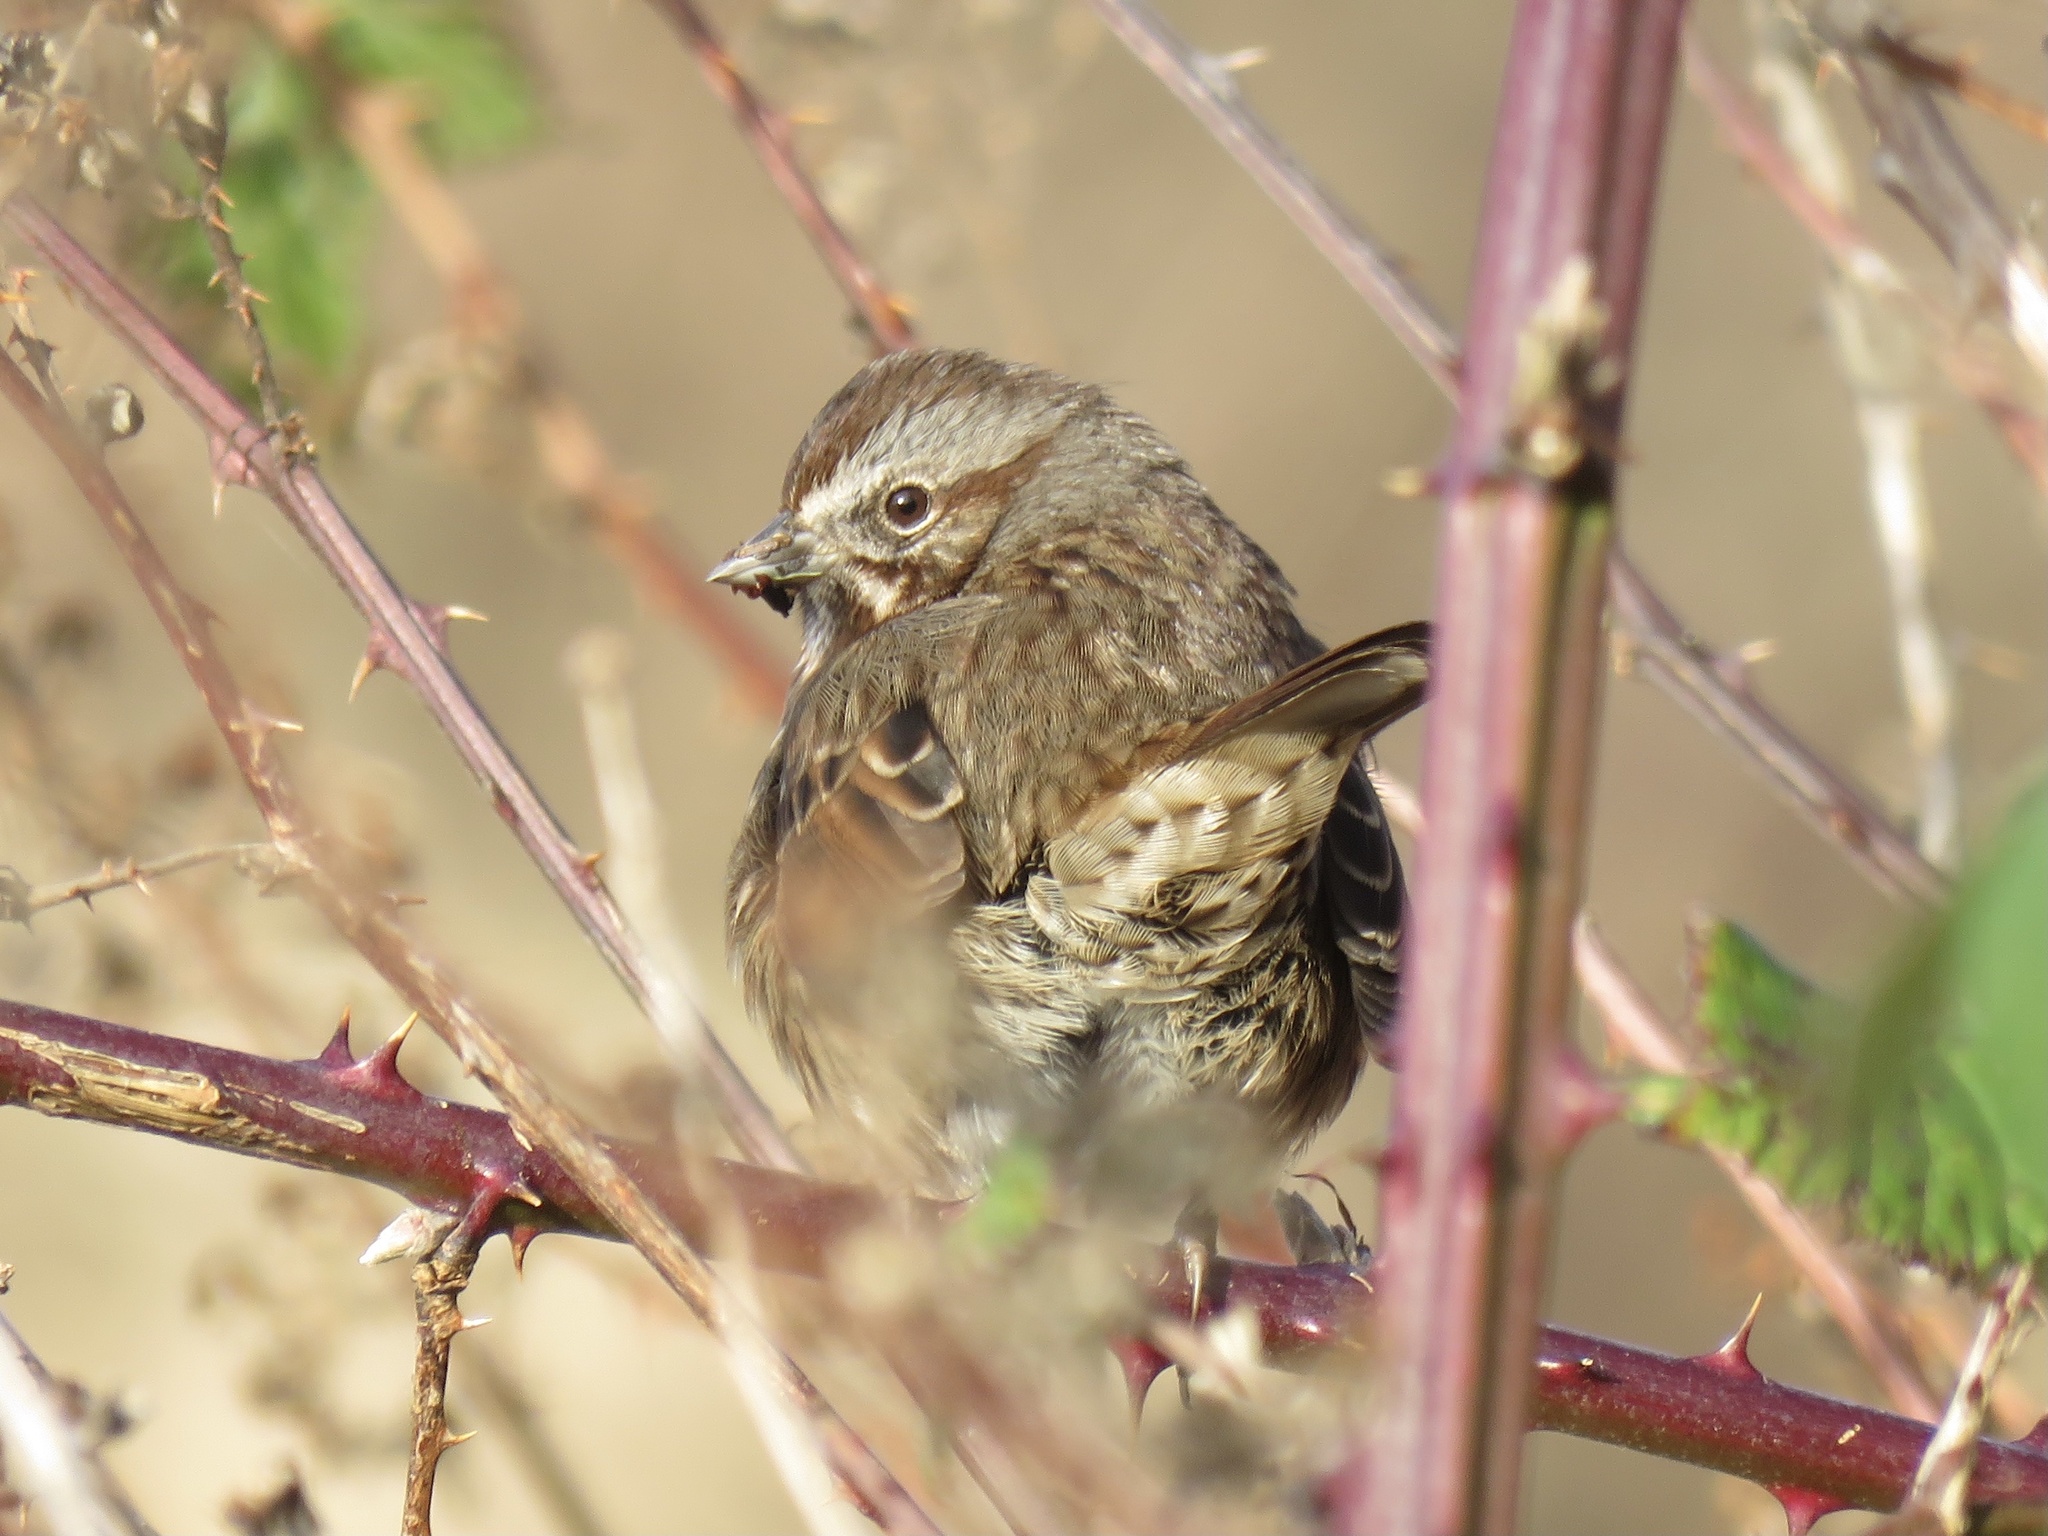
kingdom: Animalia
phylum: Chordata
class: Aves
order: Passeriformes
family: Passerellidae
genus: Melospiza
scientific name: Melospiza melodia
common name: Song sparrow
